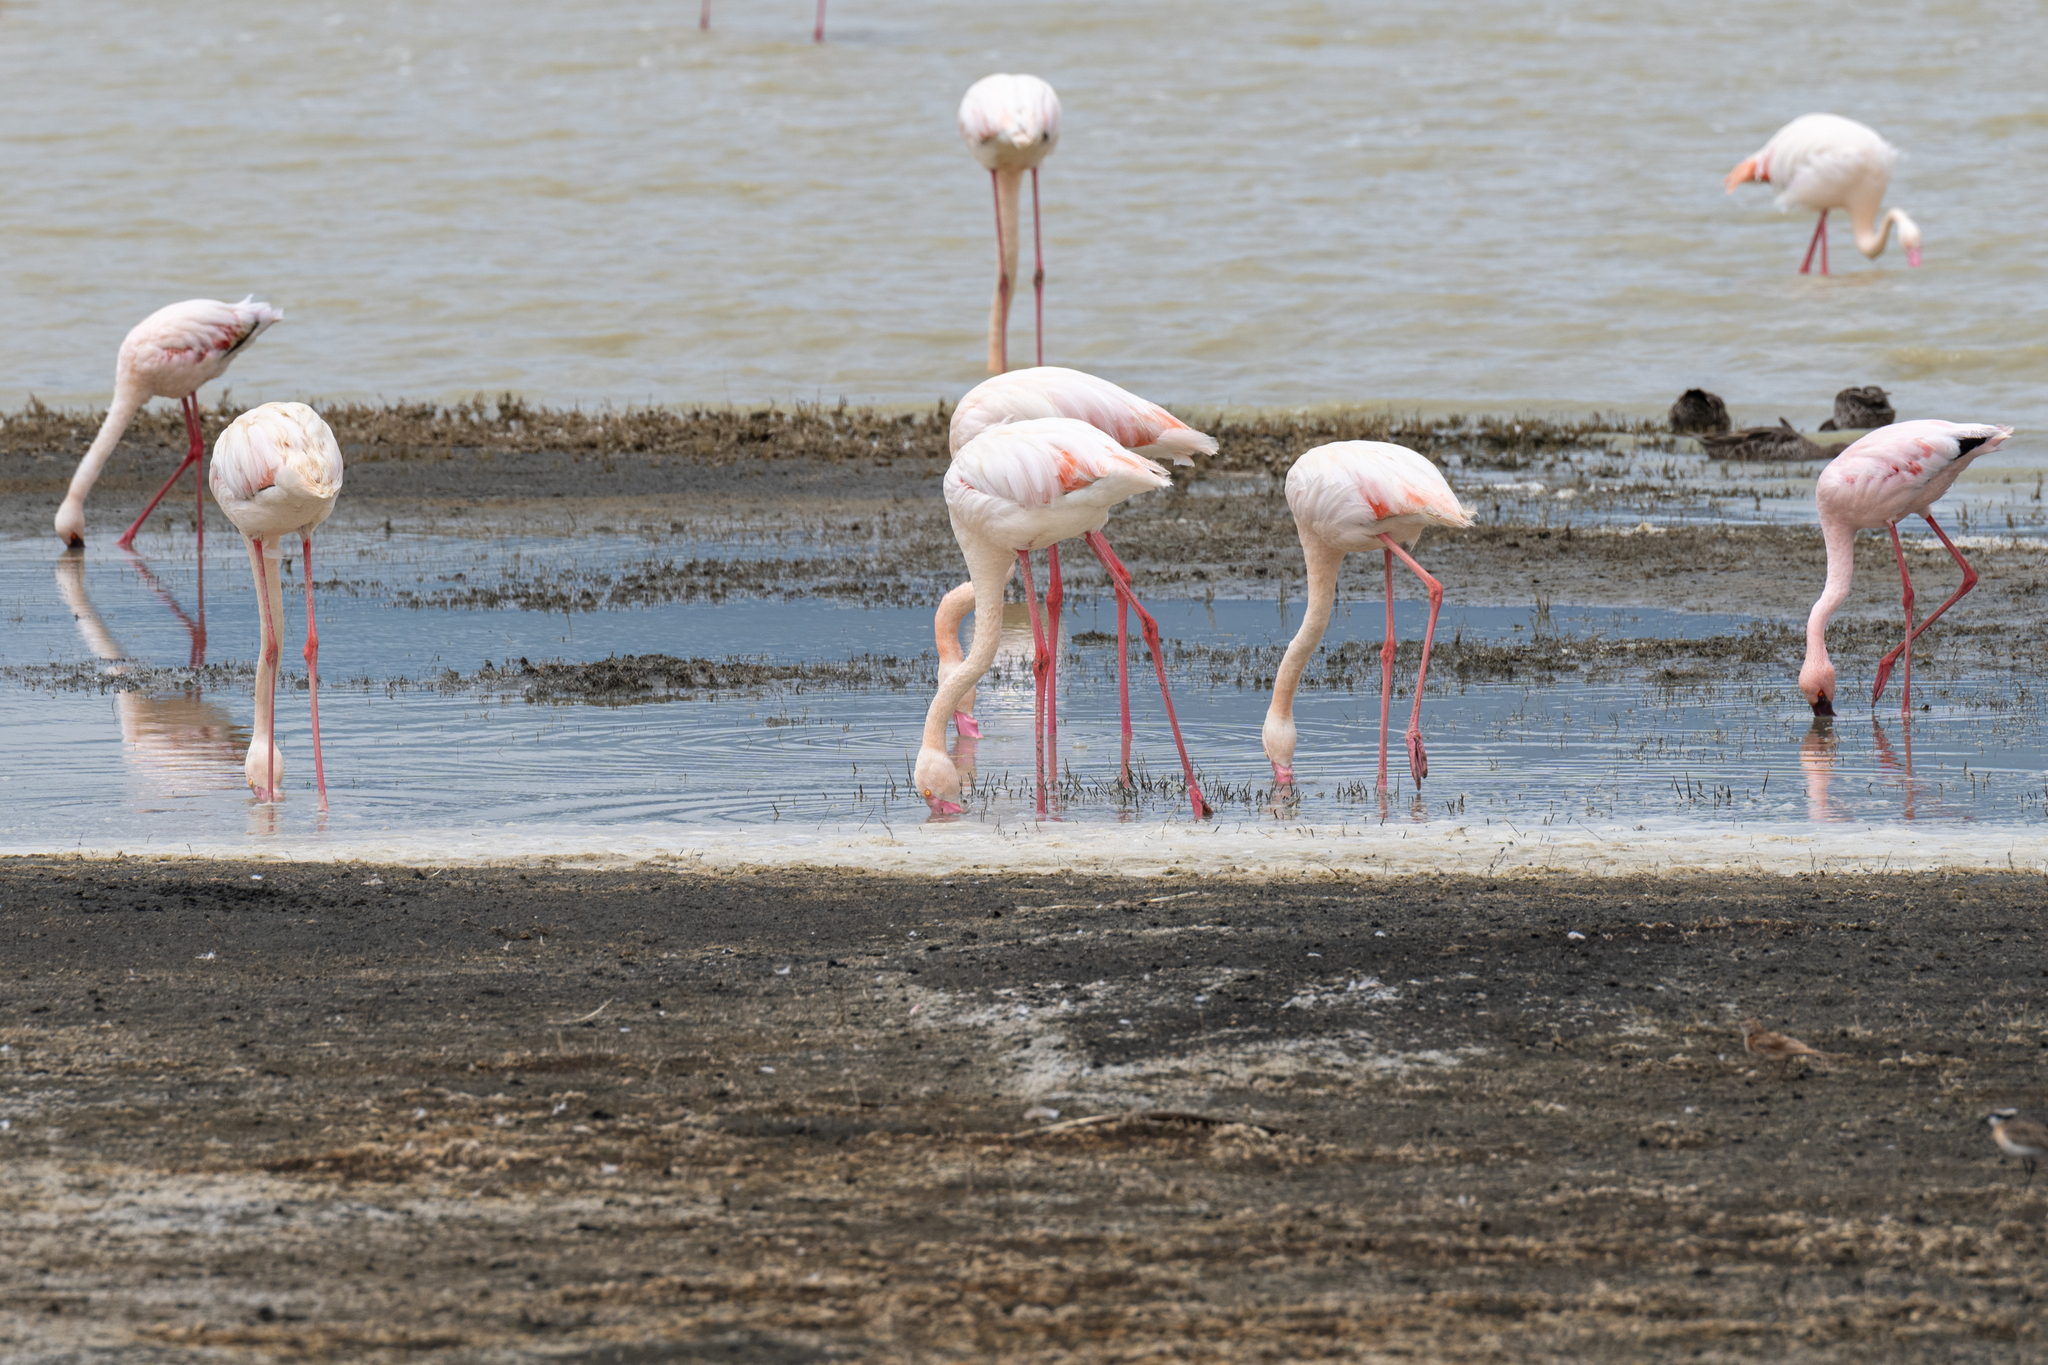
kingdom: Animalia
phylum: Chordata
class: Aves
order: Phoenicopteriformes
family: Phoenicopteridae
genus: Phoenicopterus
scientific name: Phoenicopterus roseus
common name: Greater flamingo
